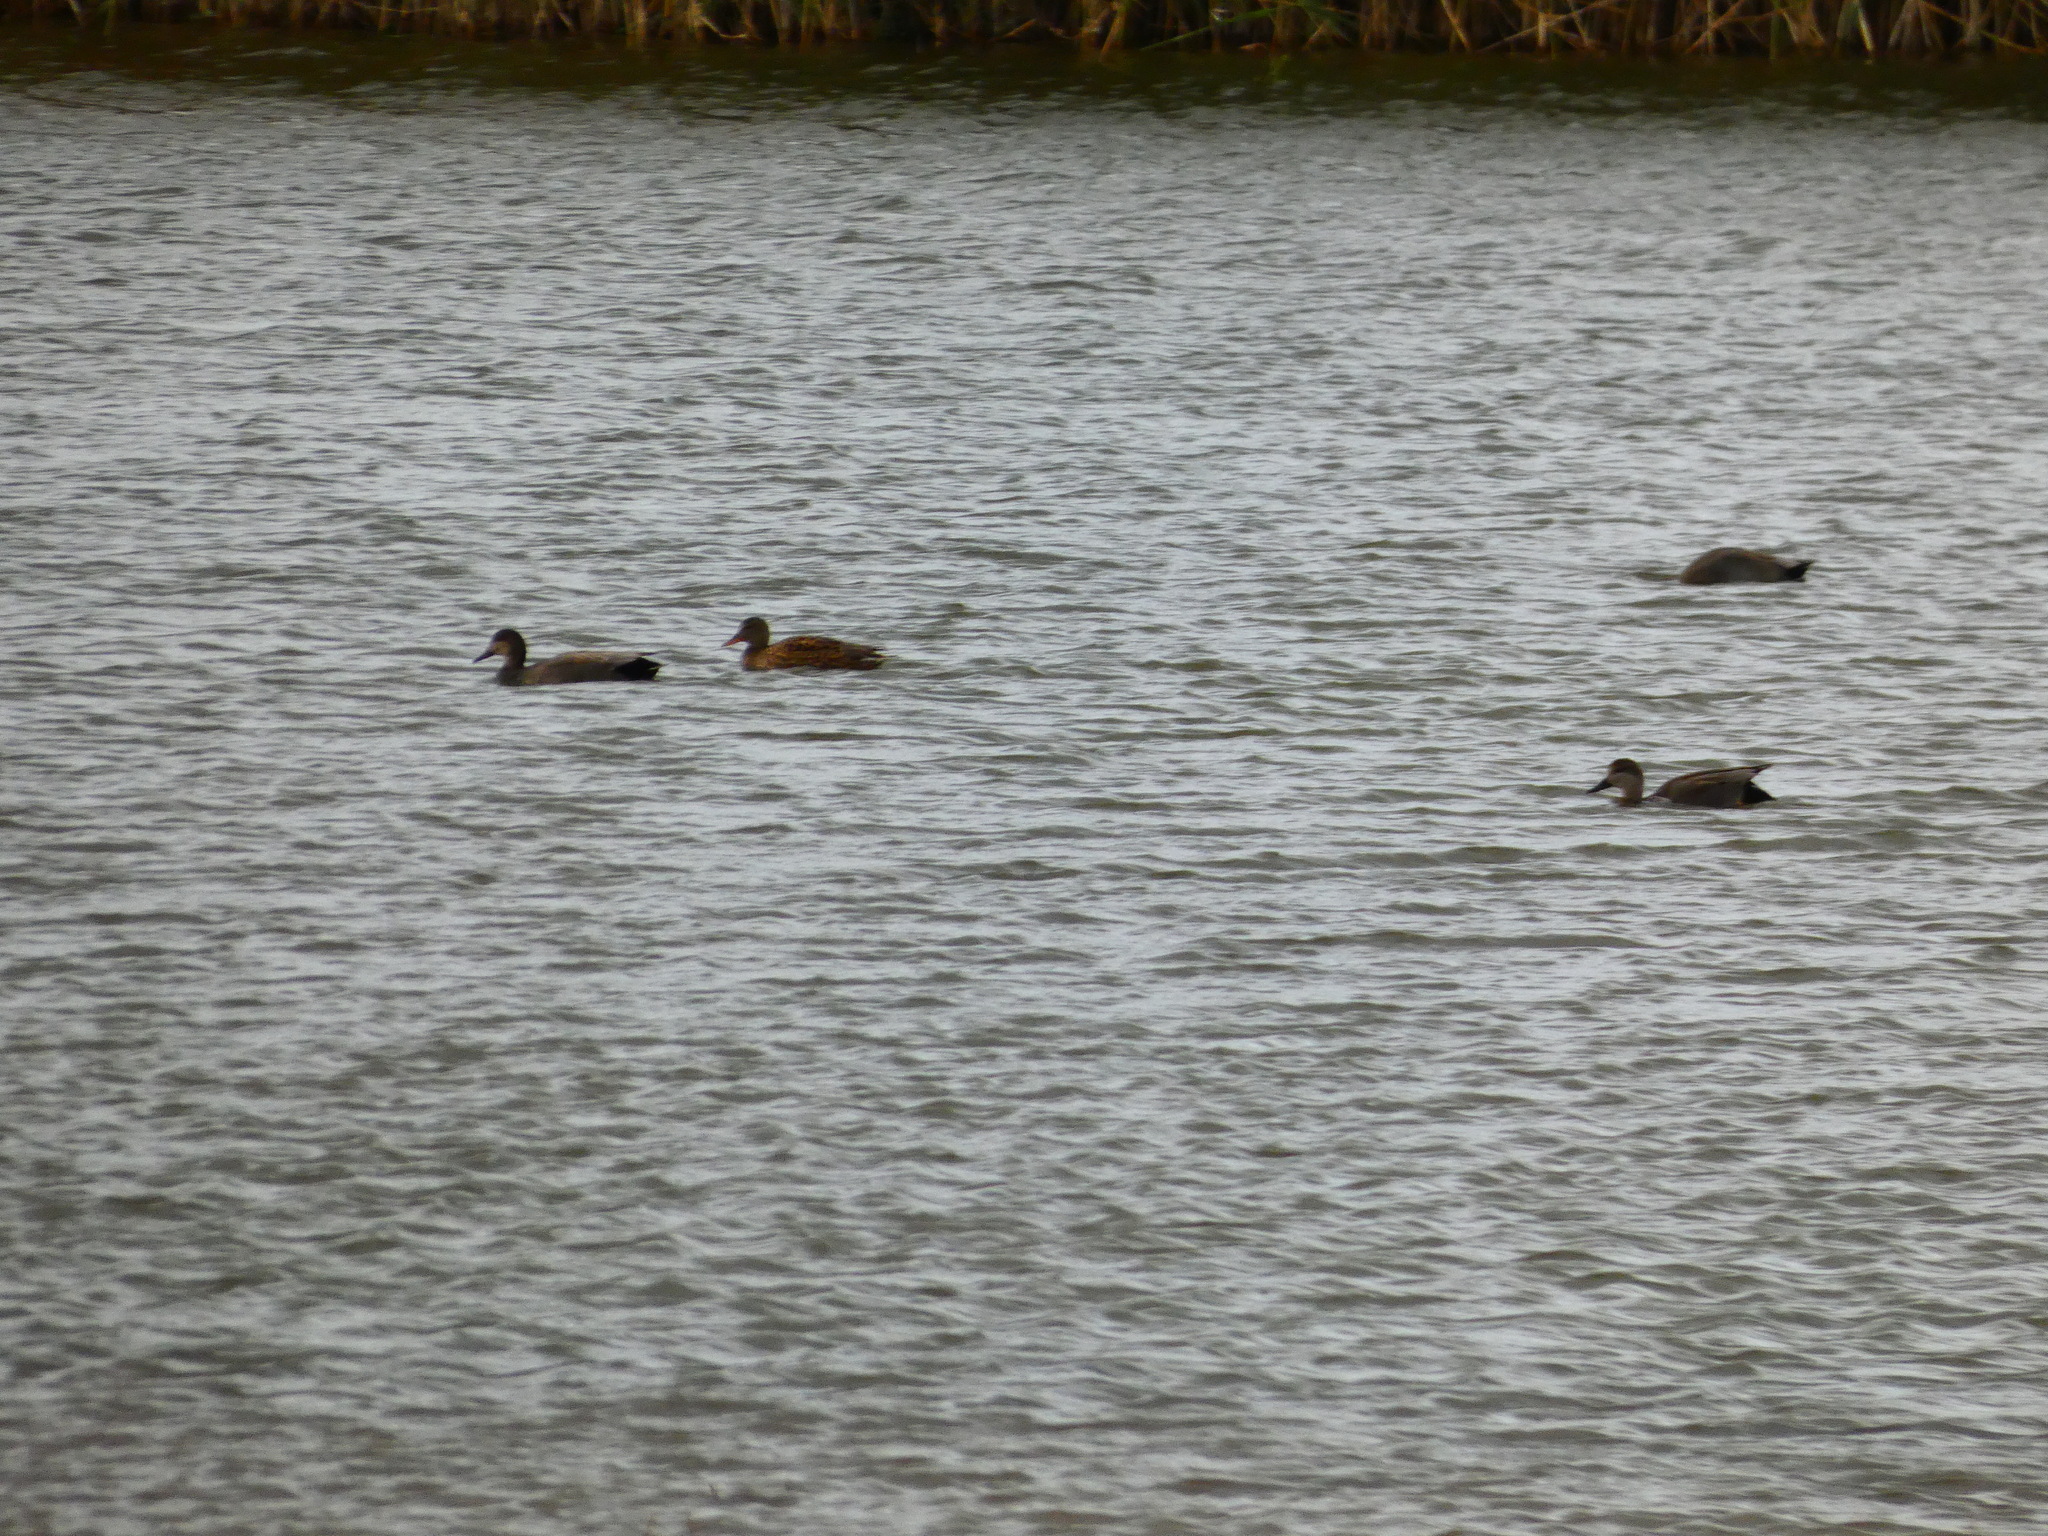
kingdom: Animalia
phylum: Chordata
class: Aves
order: Anseriformes
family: Anatidae
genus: Mareca
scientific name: Mareca strepera
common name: Gadwall
